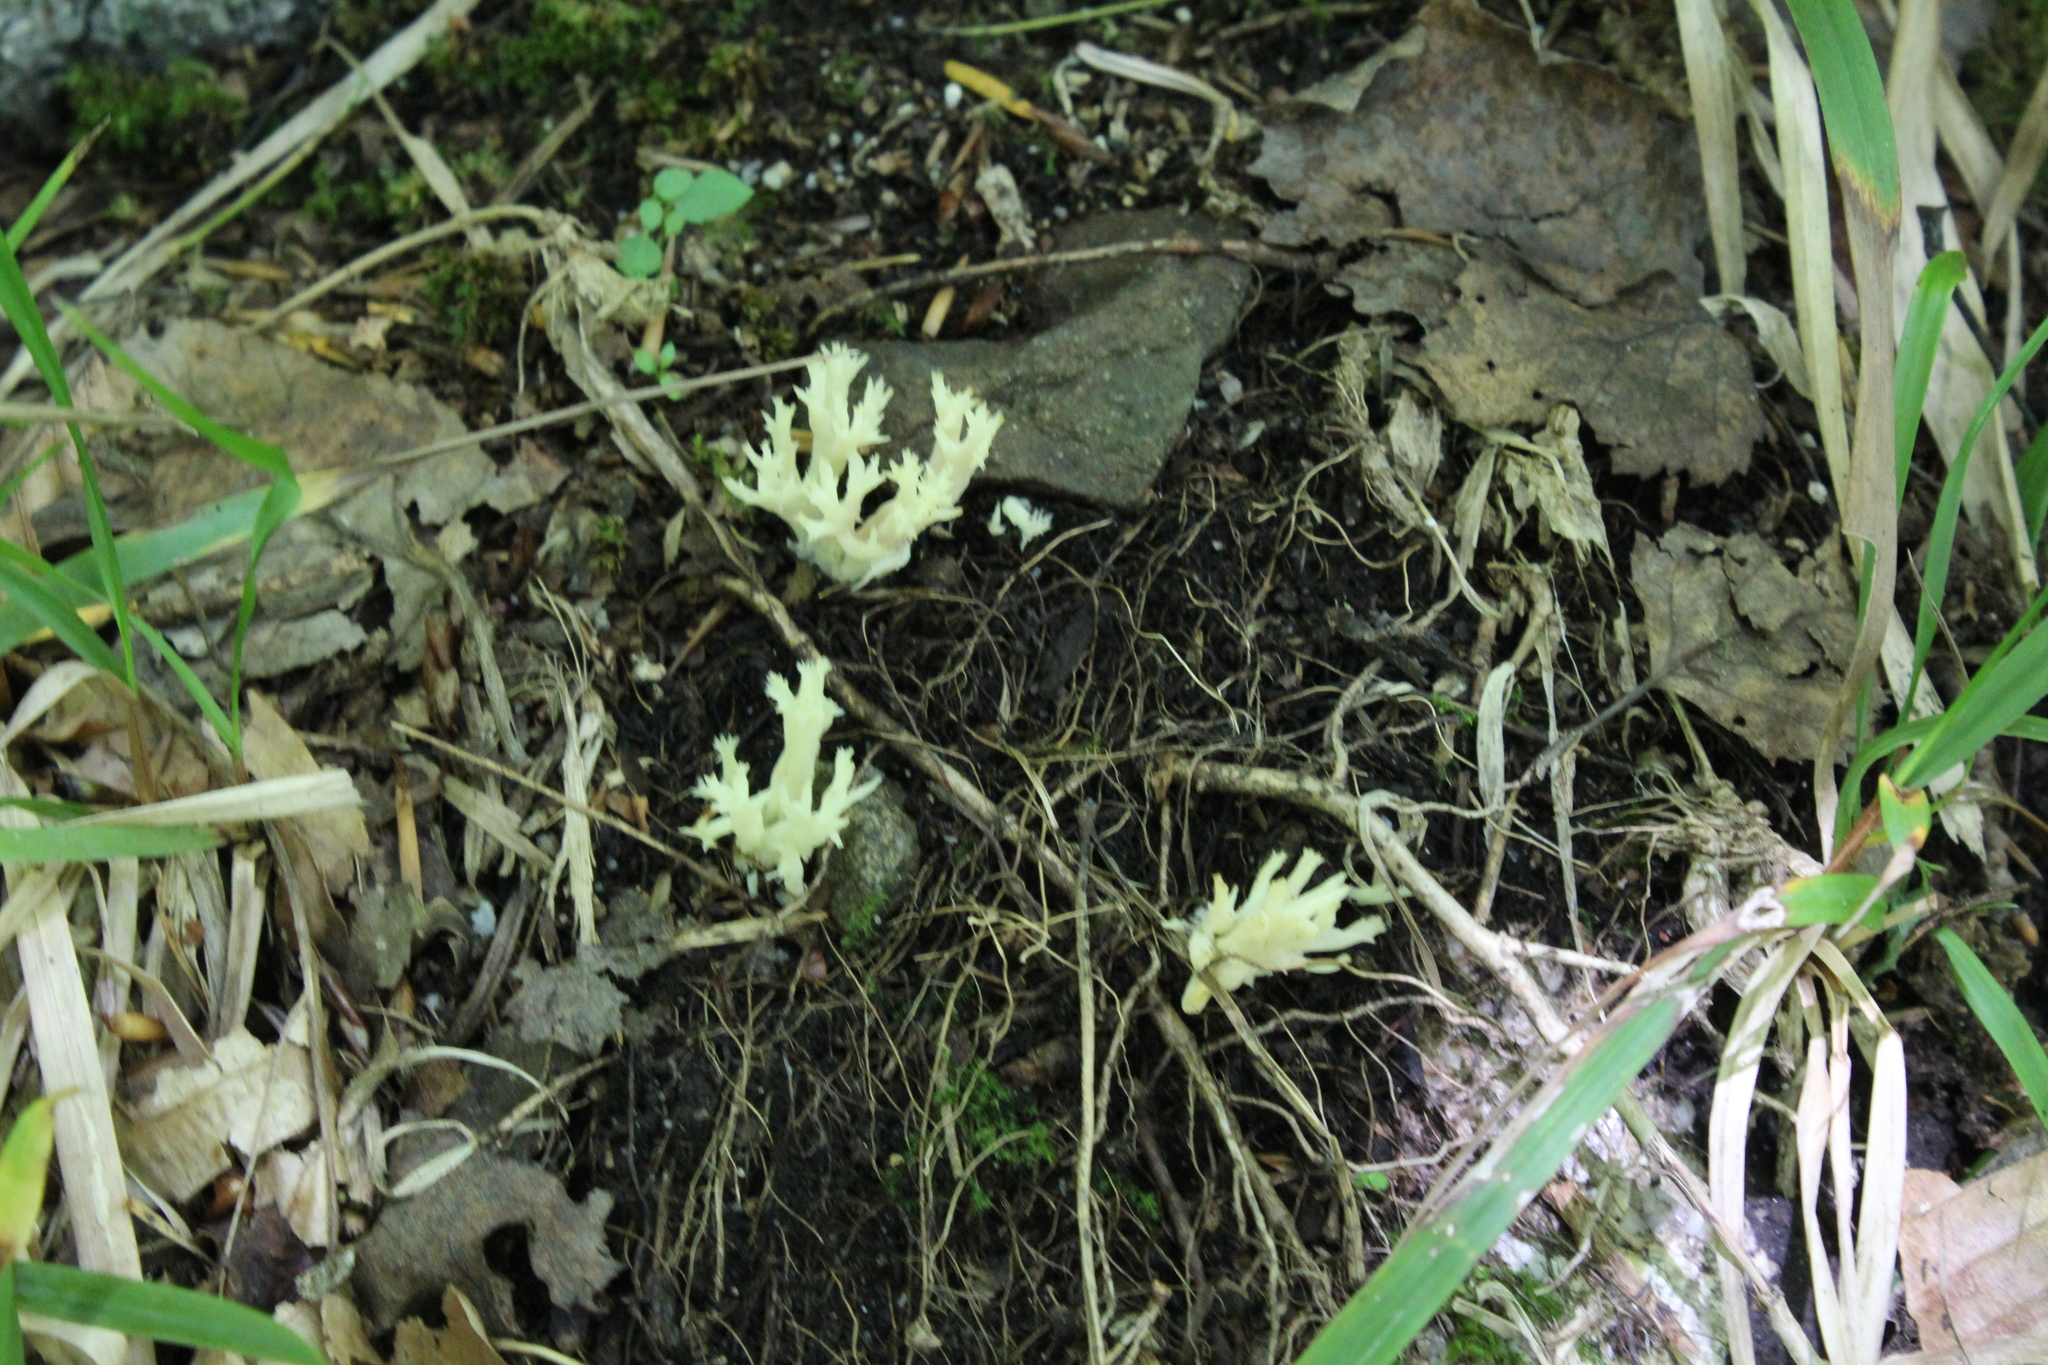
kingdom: Fungi
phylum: Basidiomycota
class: Agaricomycetes
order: Cantharellales
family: Hydnaceae
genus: Clavulina
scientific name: Clavulina coralloides
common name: Crested coral
